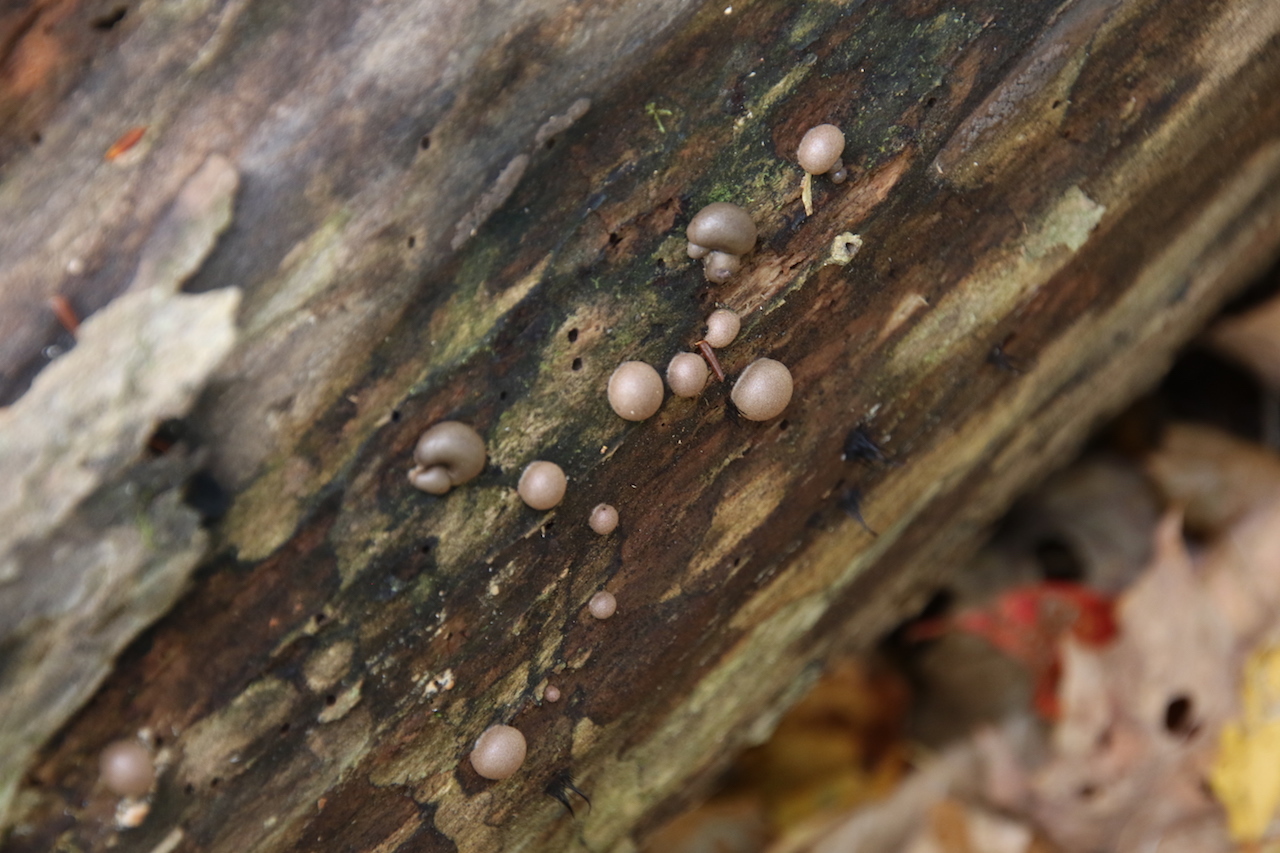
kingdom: Protozoa
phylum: Mycetozoa
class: Myxomycetes
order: Cribrariales
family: Tubiferaceae
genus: Lycogala
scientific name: Lycogala epidendrum
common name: Wolf's milk
